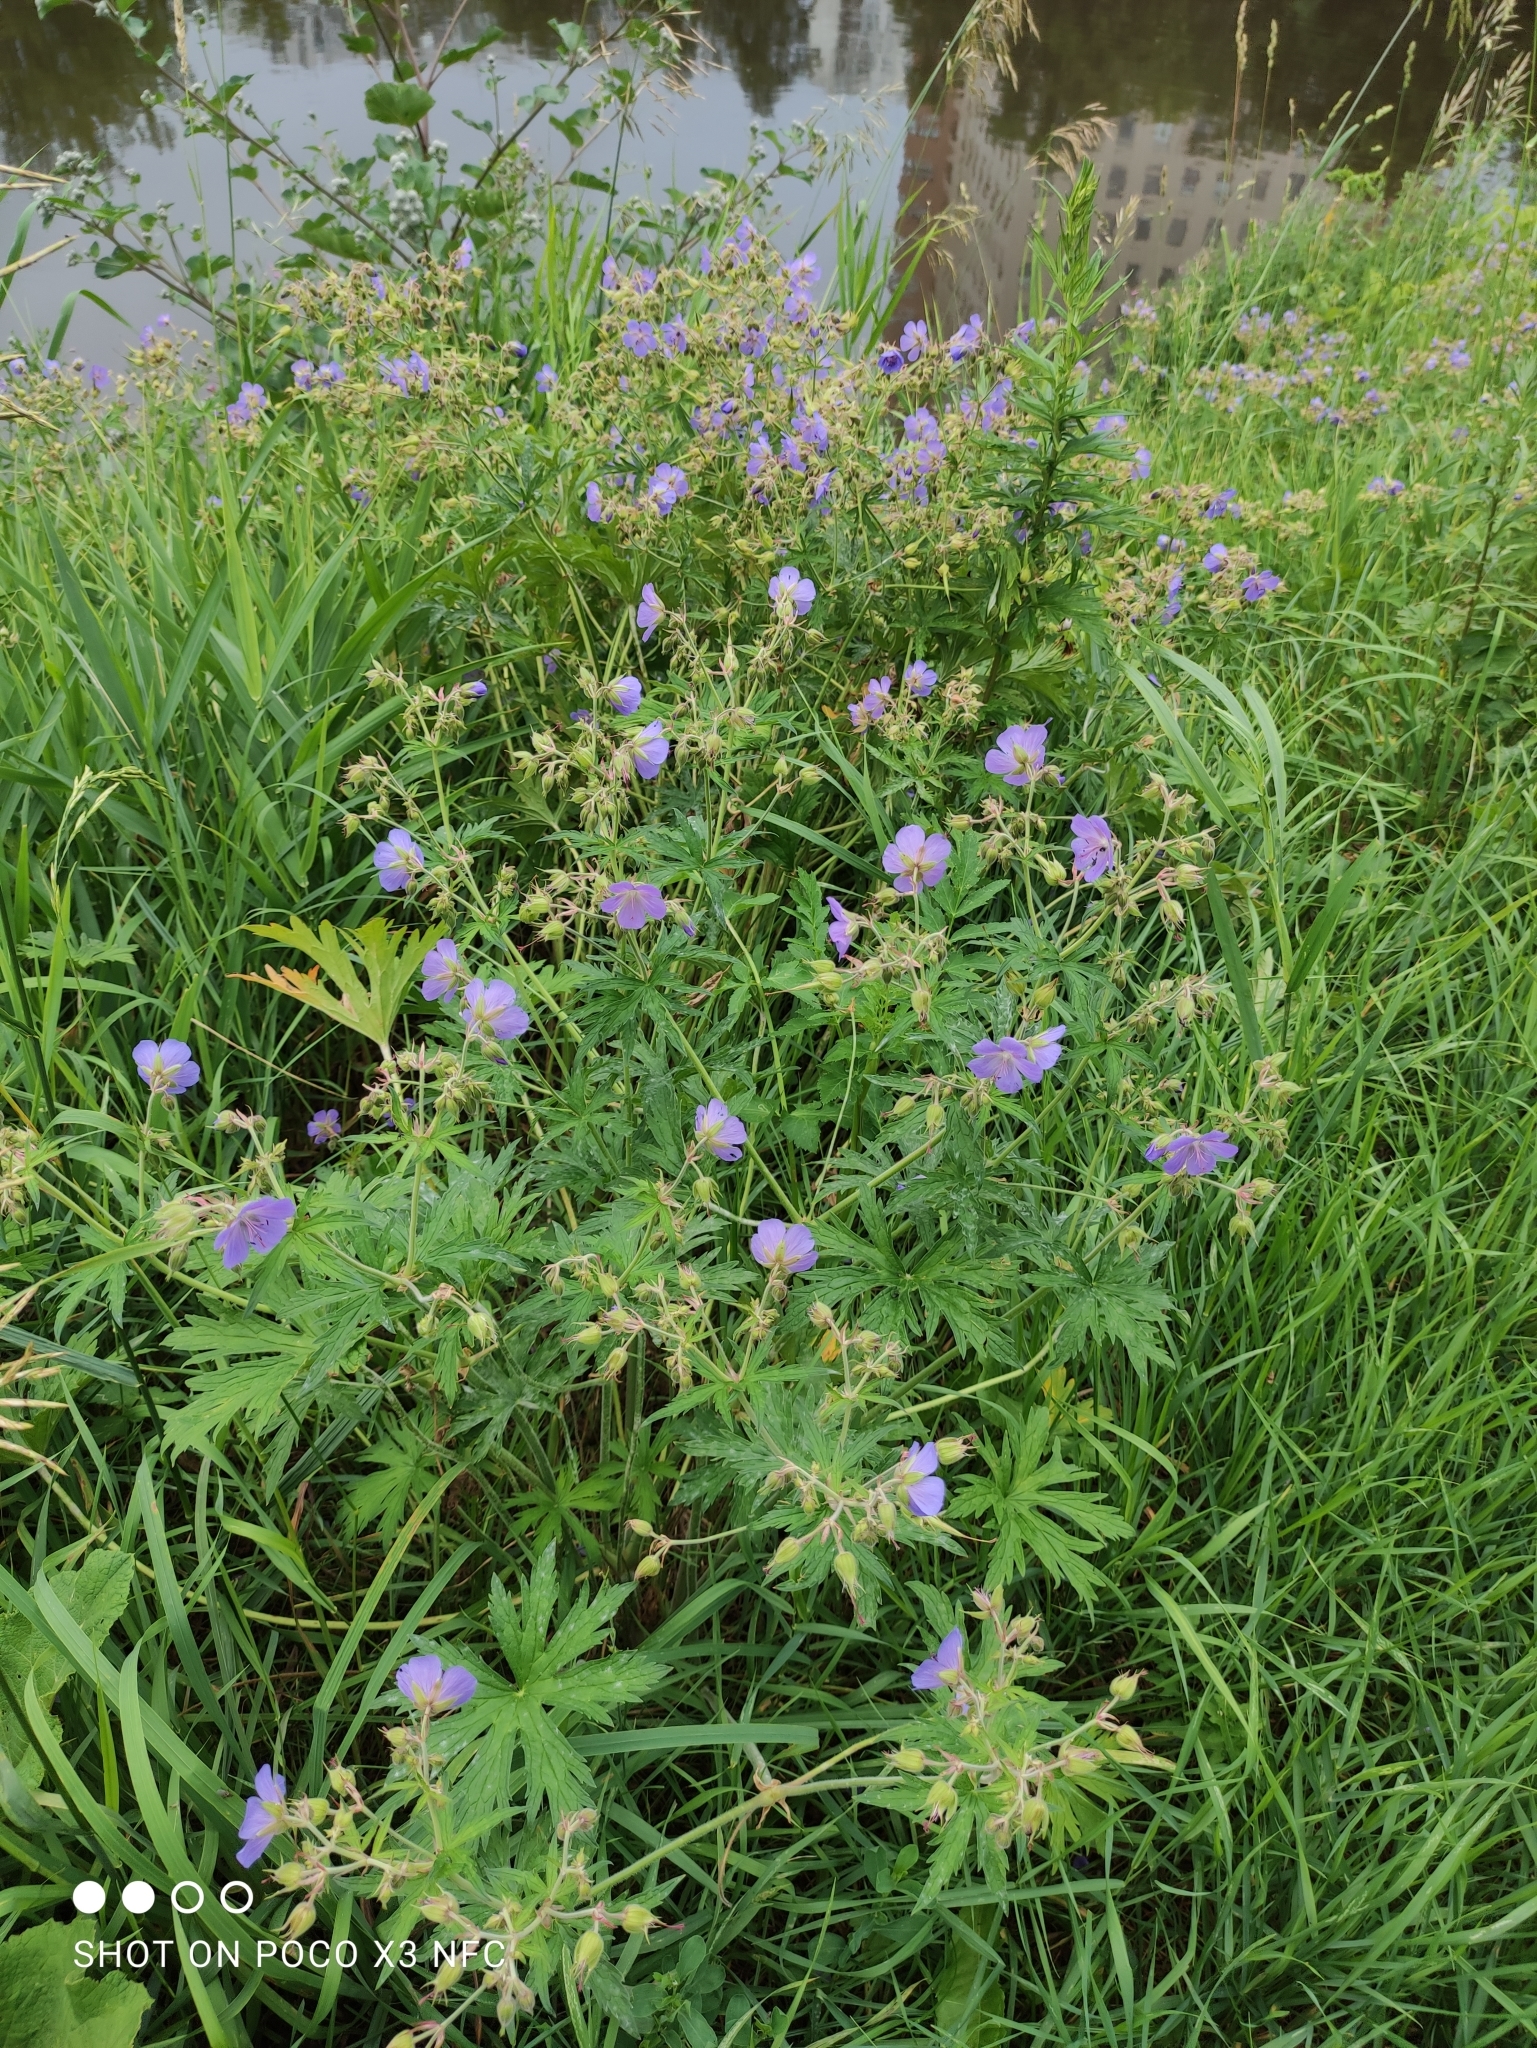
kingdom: Plantae
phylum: Tracheophyta
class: Magnoliopsida
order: Geraniales
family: Geraniaceae
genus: Geranium
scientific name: Geranium pratense
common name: Meadow crane's-bill
